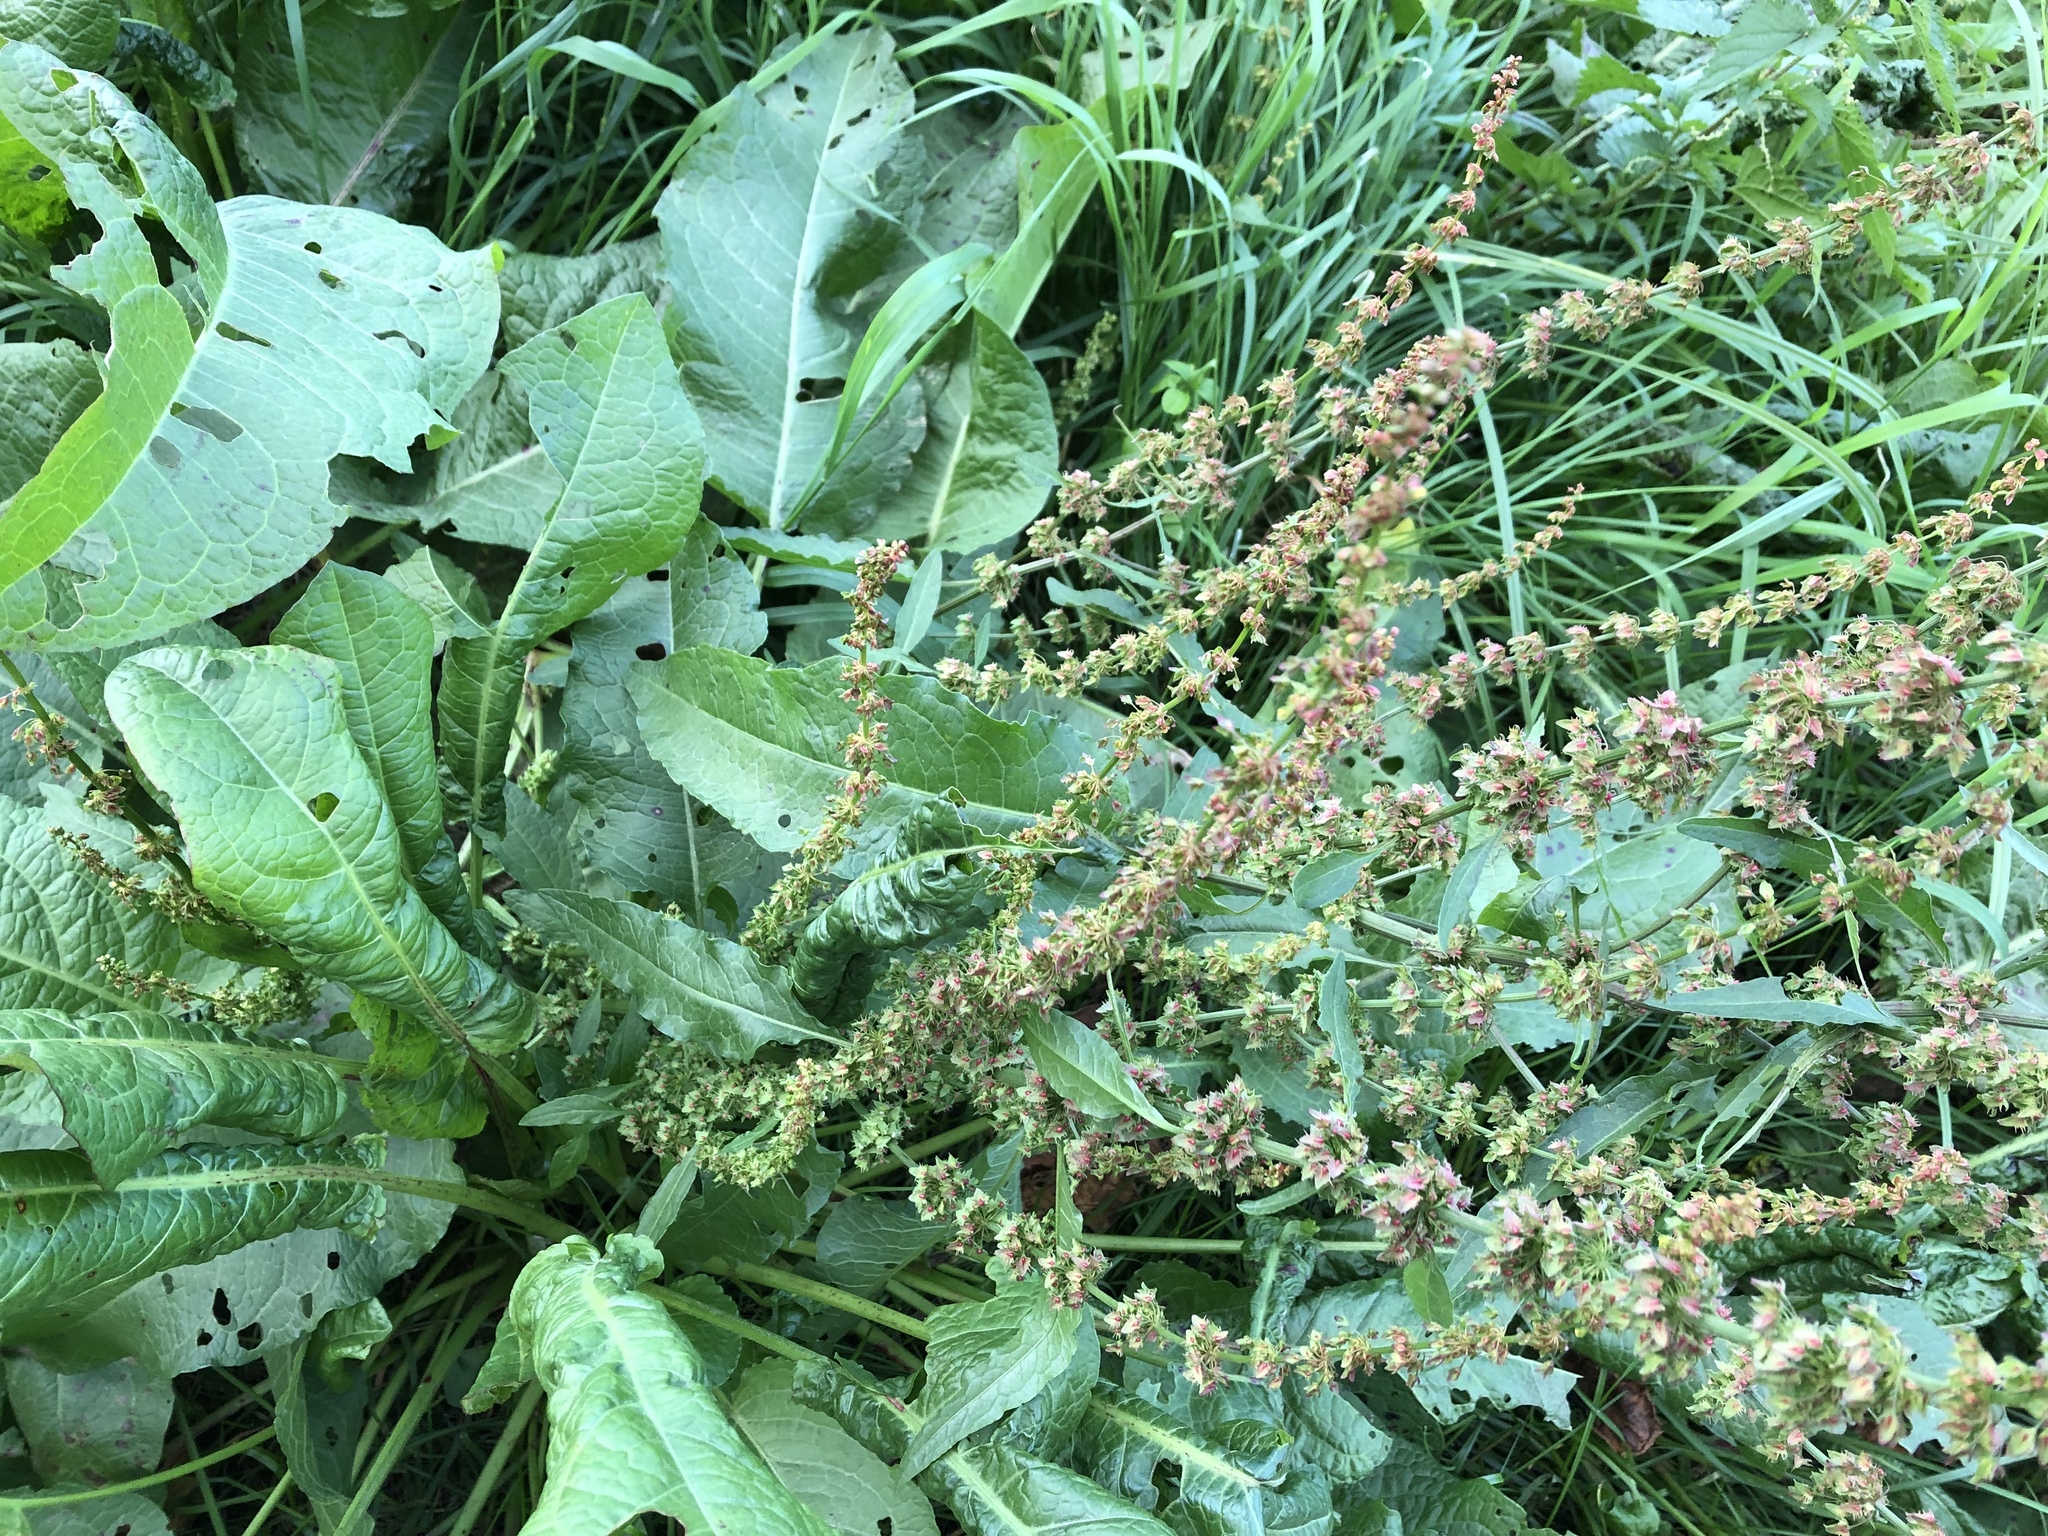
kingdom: Plantae
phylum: Tracheophyta
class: Magnoliopsida
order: Caryophyllales
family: Polygonaceae
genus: Rumex
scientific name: Rumex obtusifolius
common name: Bitter dock
